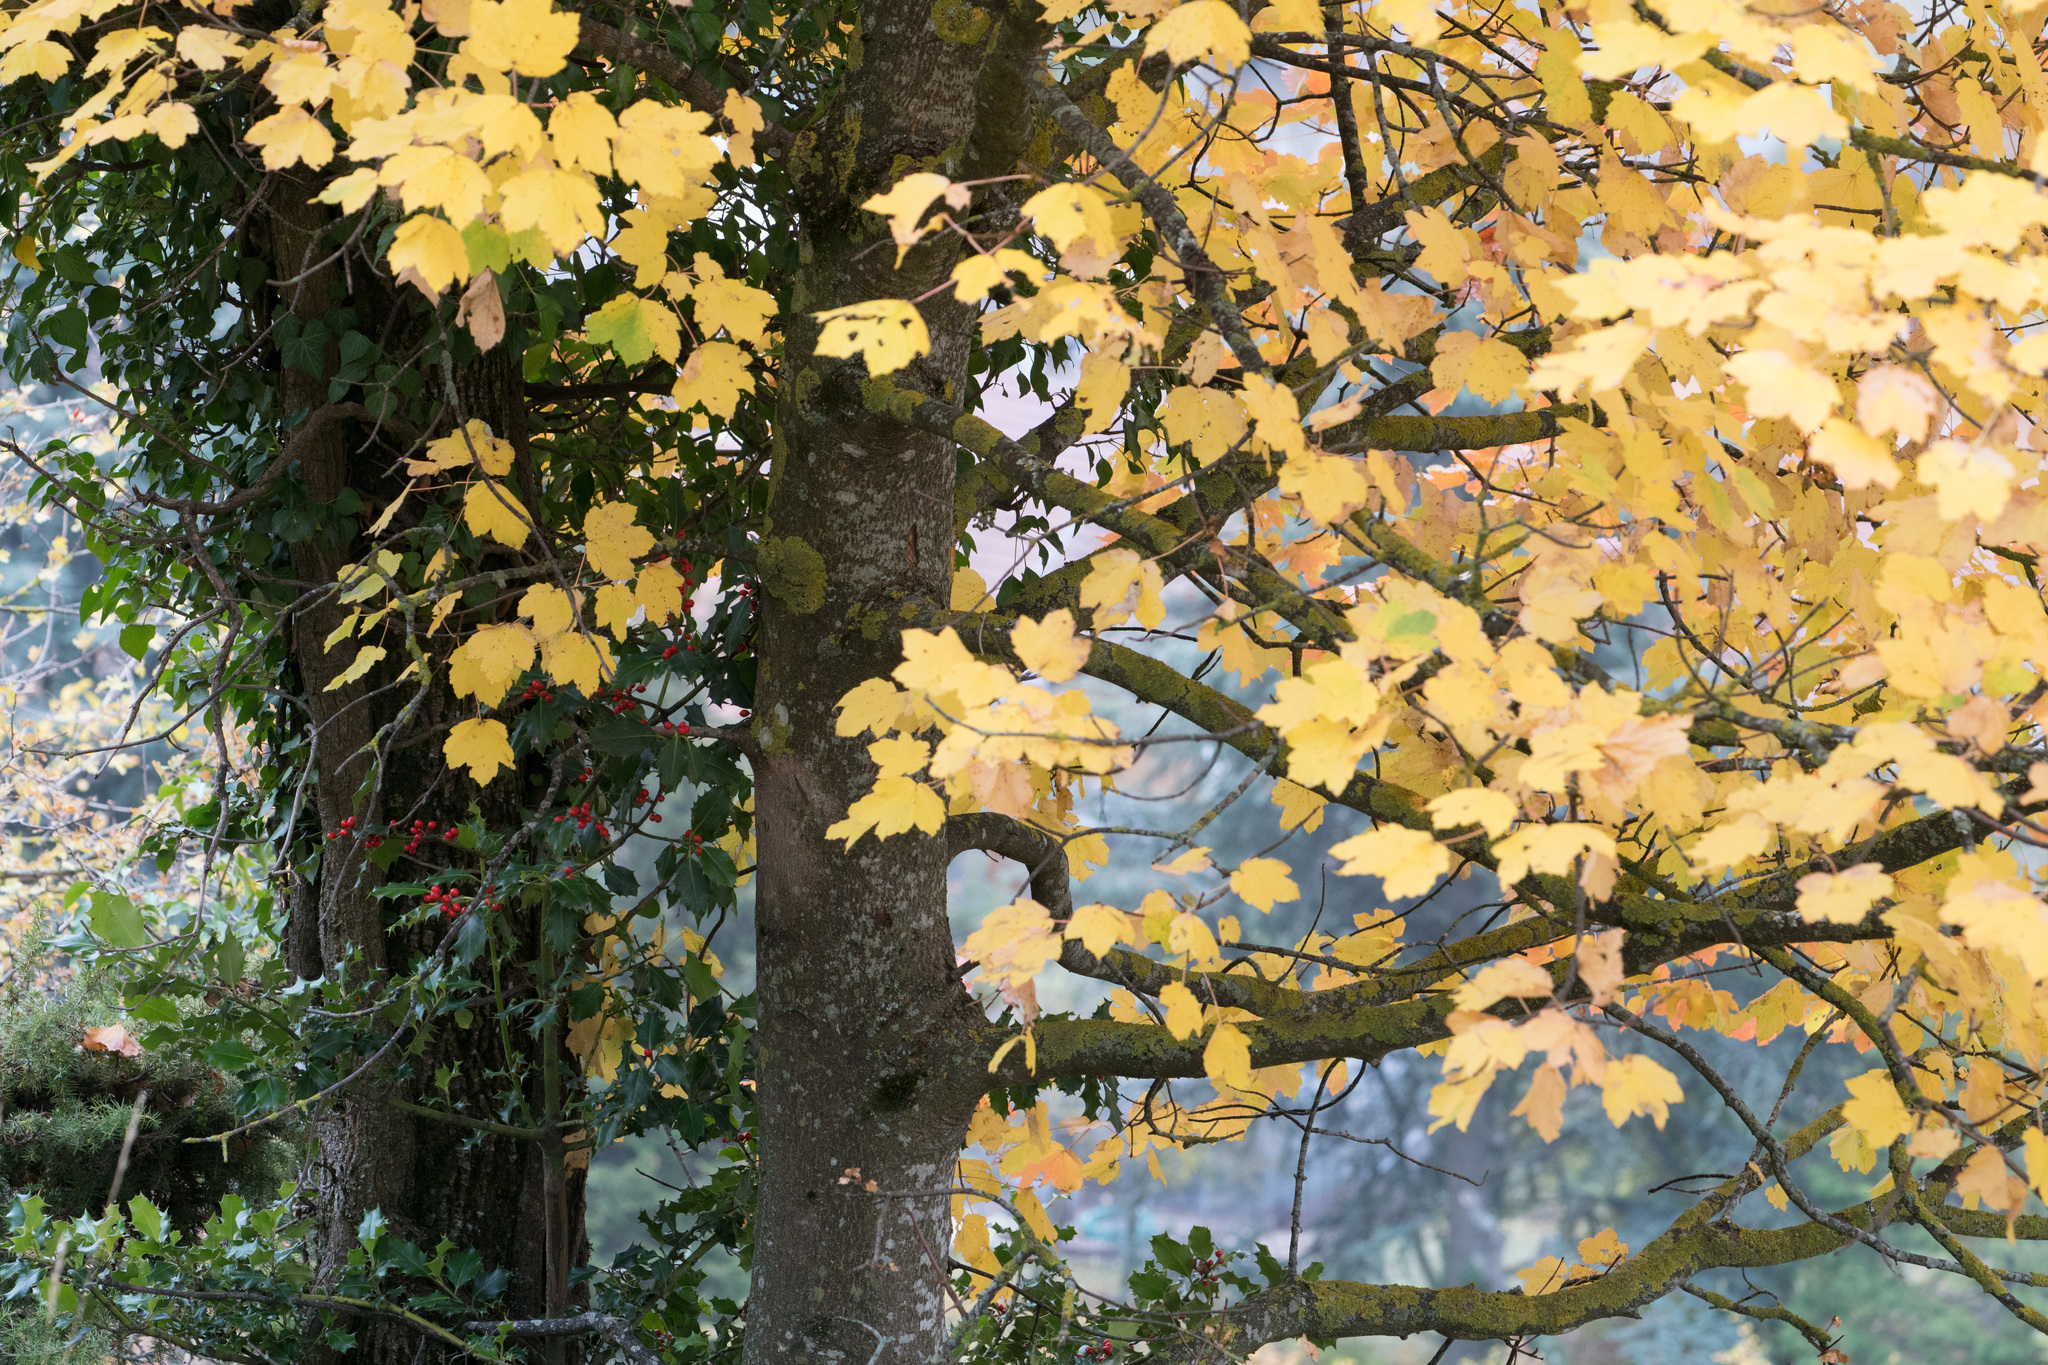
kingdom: Plantae
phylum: Tracheophyta
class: Magnoliopsida
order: Sapindales
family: Sapindaceae
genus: Acer
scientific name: Acer pseudoplatanus
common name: Sycamore
